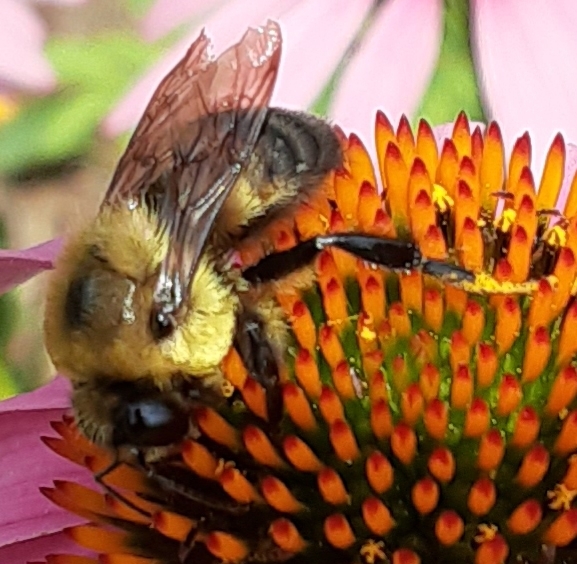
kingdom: Animalia
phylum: Arthropoda
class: Insecta
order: Hymenoptera
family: Apidae
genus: Bombus
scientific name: Bombus griseocollis
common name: Brown-belted bumble bee
